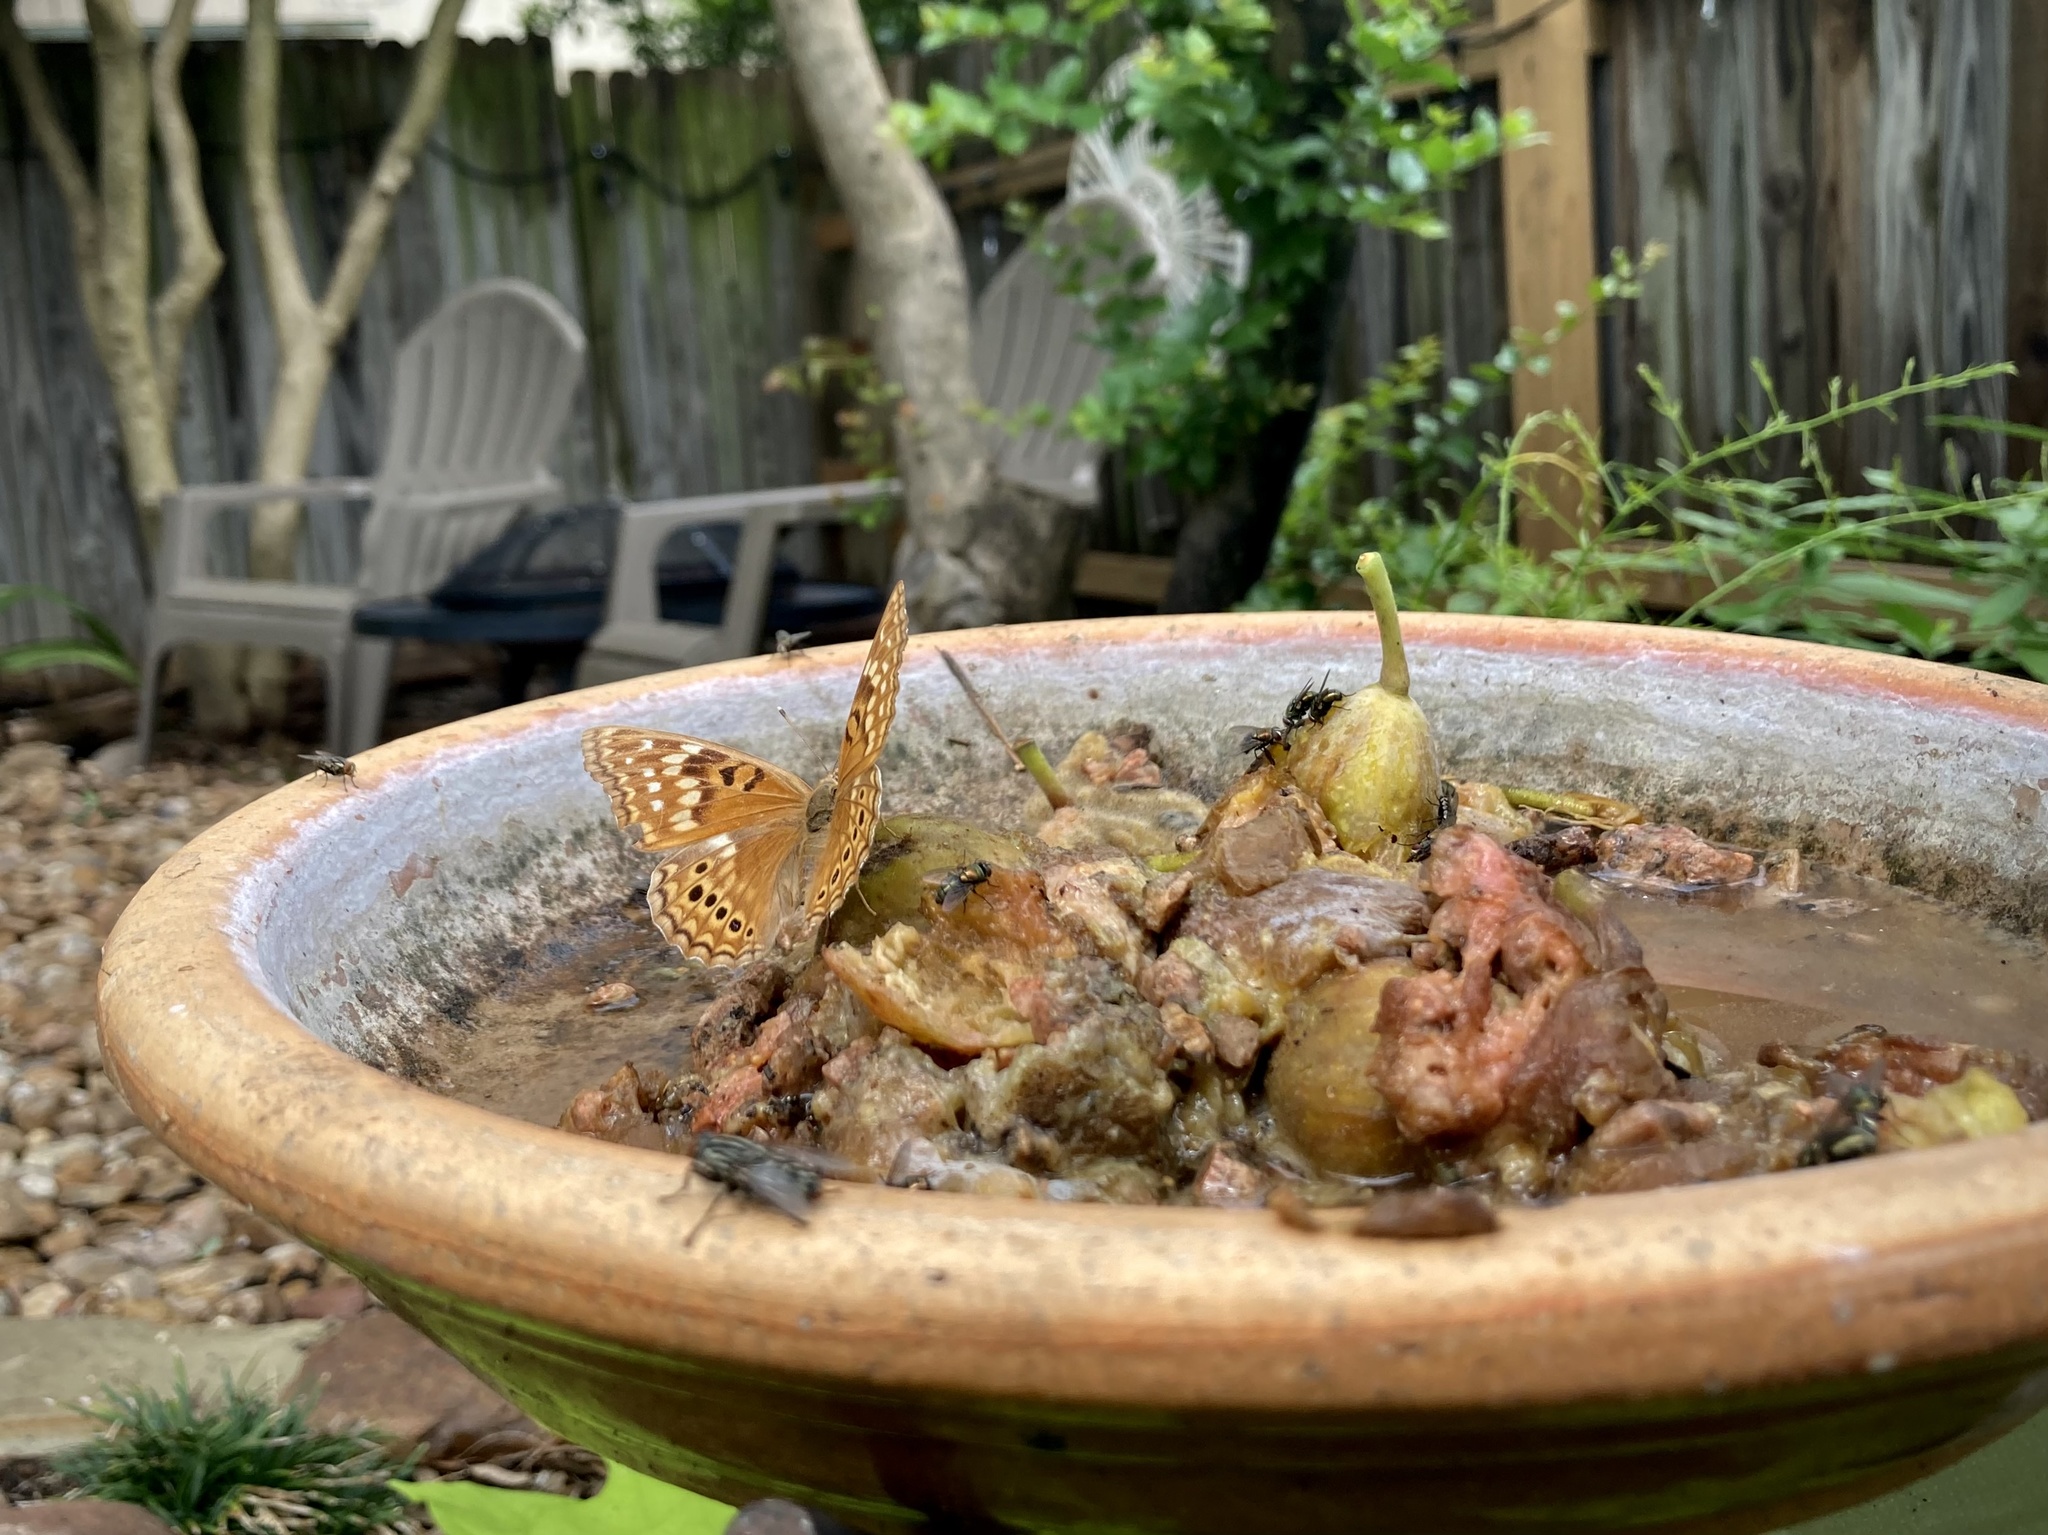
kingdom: Animalia
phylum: Arthropoda
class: Insecta
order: Lepidoptera
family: Nymphalidae
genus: Asterocampa
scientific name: Asterocampa clyton
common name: Tawny emperor
